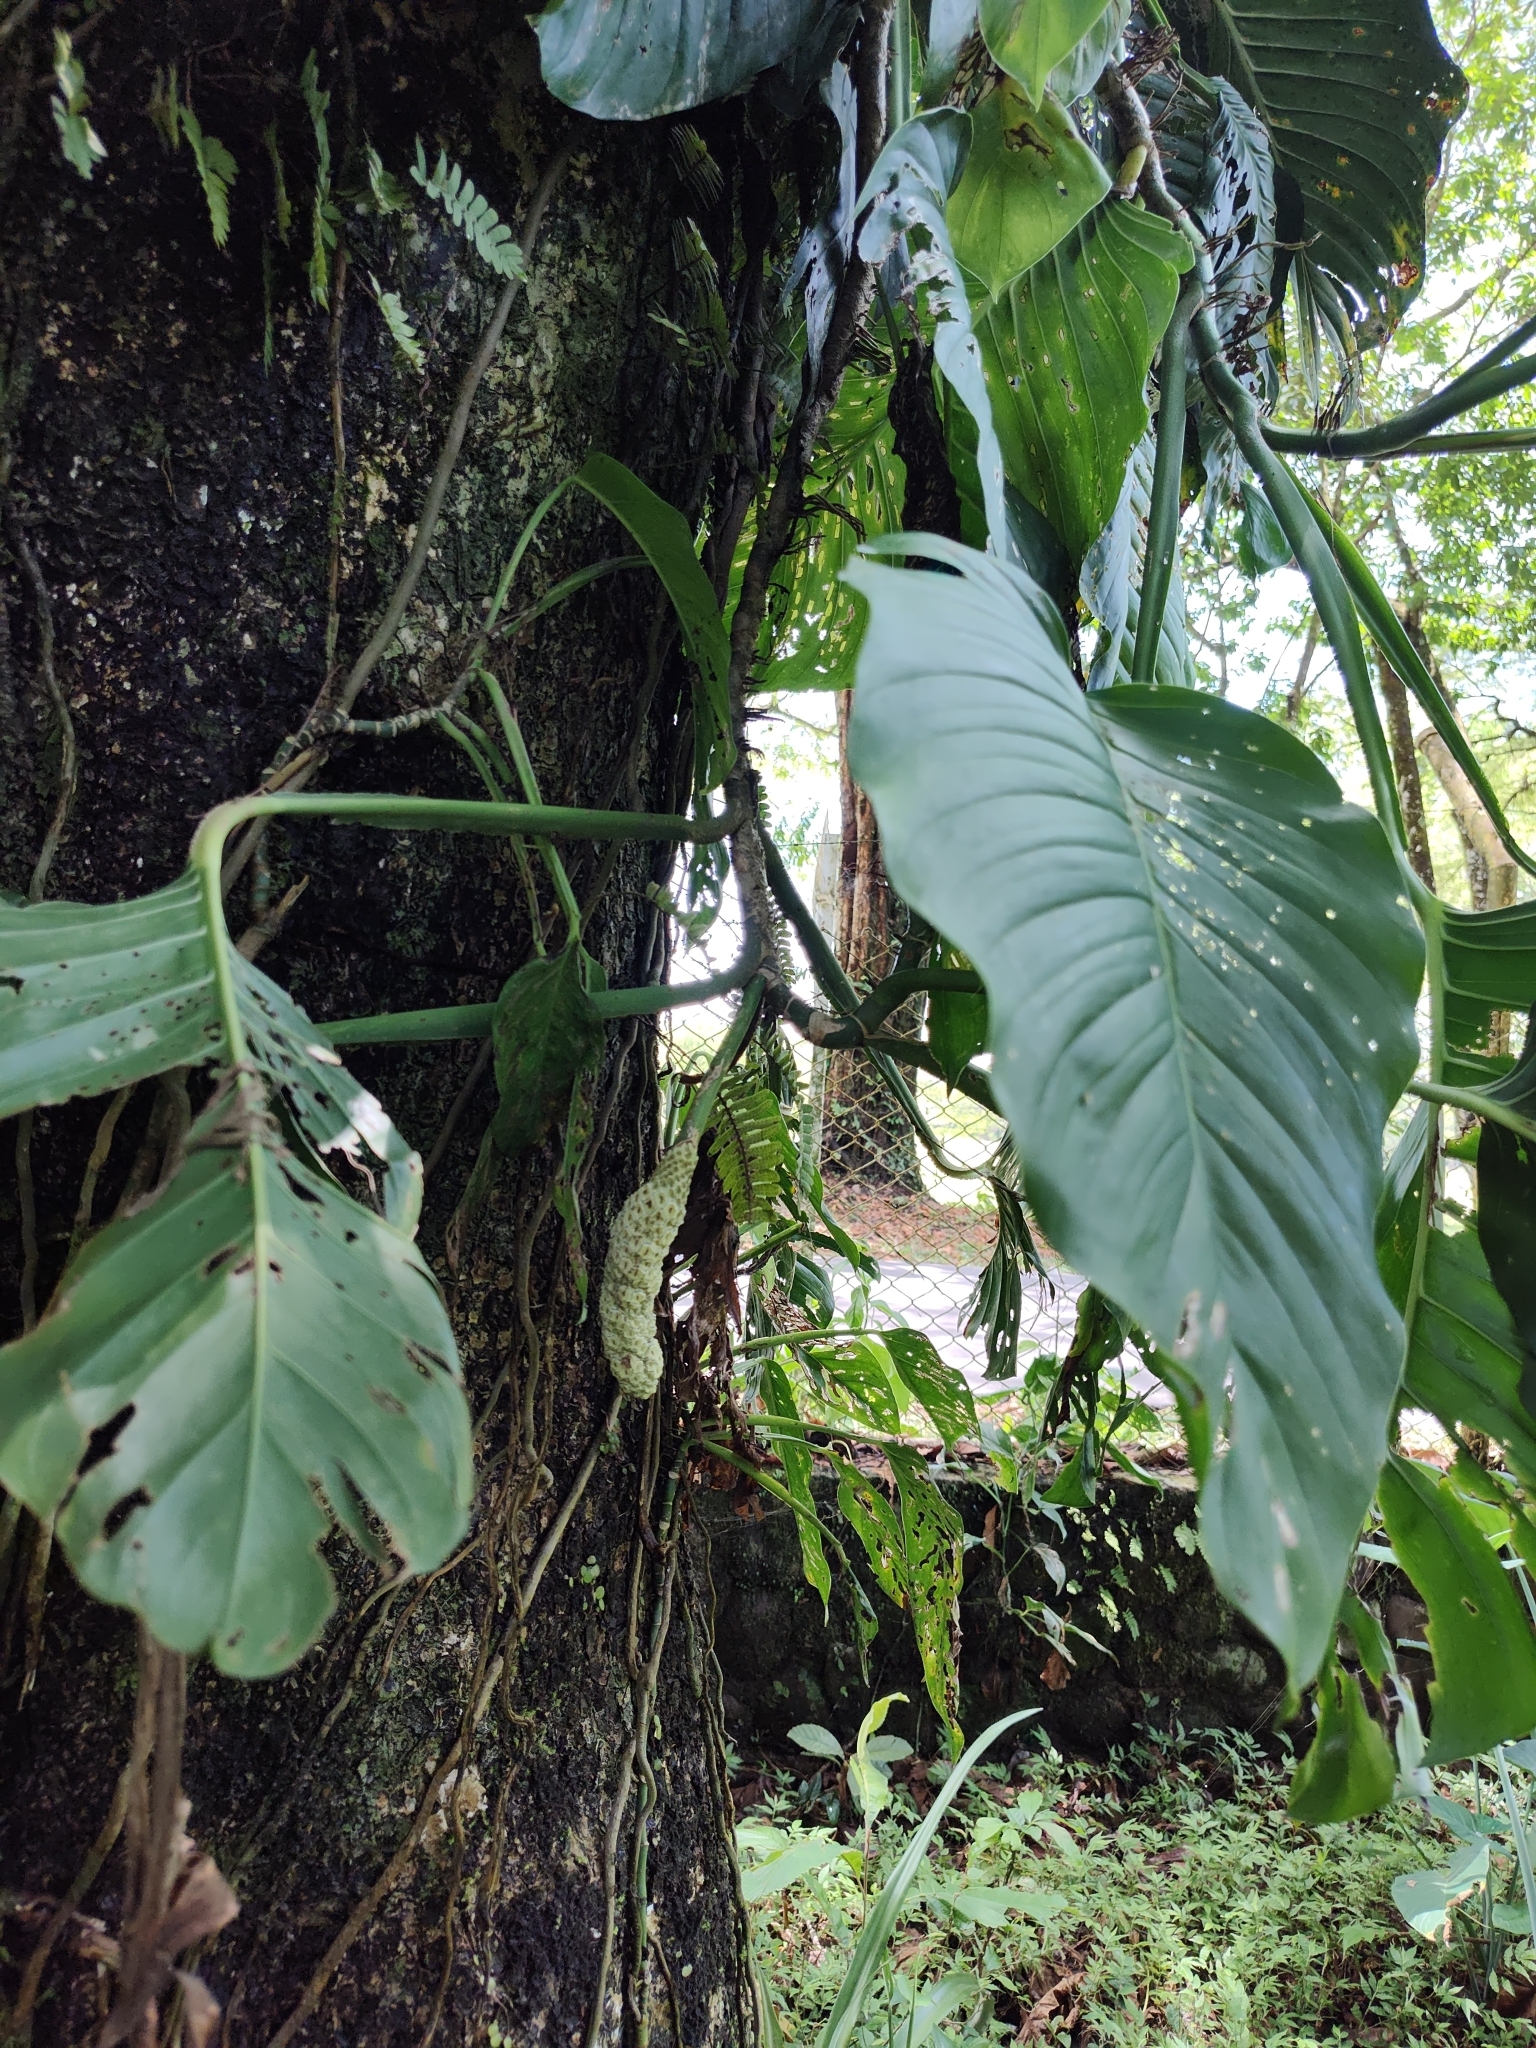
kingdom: Plantae
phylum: Tracheophyta
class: Liliopsida
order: Alismatales
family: Araceae
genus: Monstera
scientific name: Monstera adansonii
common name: Tarovine
